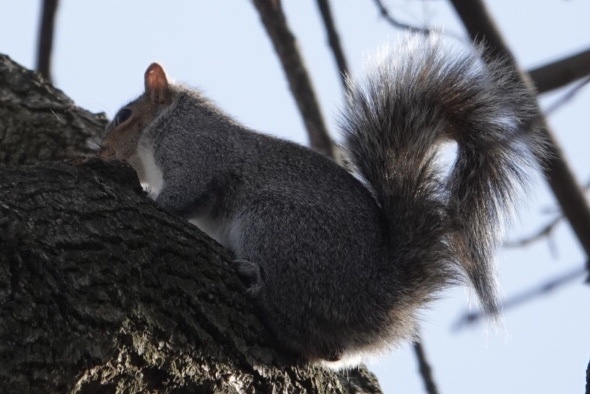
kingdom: Animalia
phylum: Chordata
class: Mammalia
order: Rodentia
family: Sciuridae
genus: Sciurus
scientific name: Sciurus carolinensis
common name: Eastern gray squirrel
